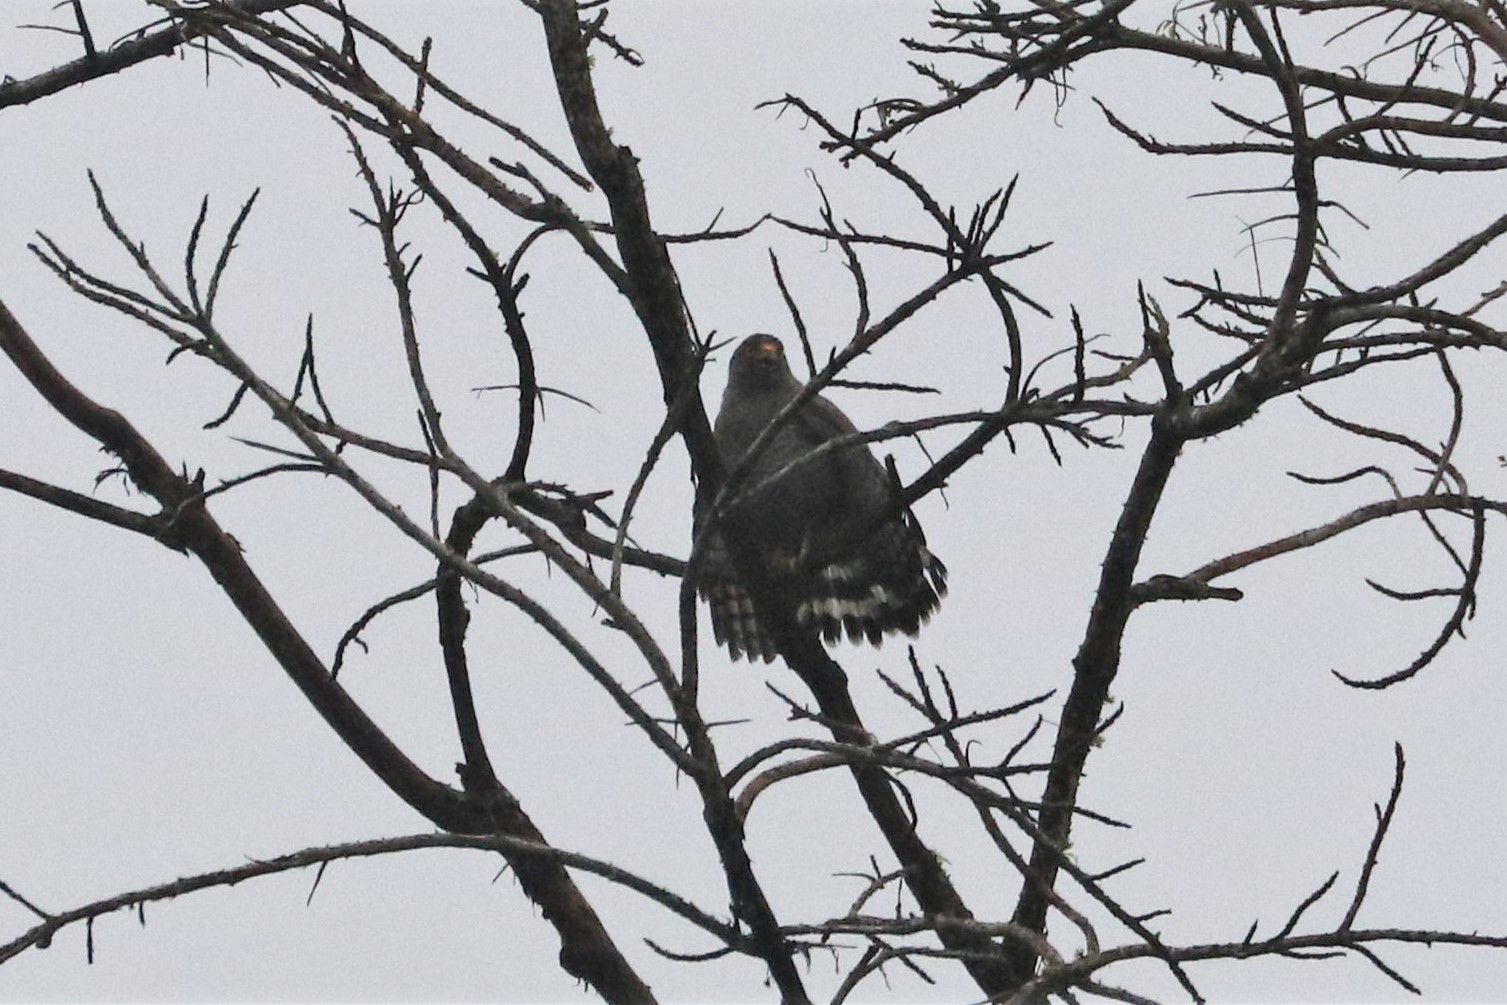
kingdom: Animalia
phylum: Chordata
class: Aves
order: Accipitriformes
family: Accipitridae
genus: Rupornis
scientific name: Rupornis magnirostris
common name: Roadside hawk
